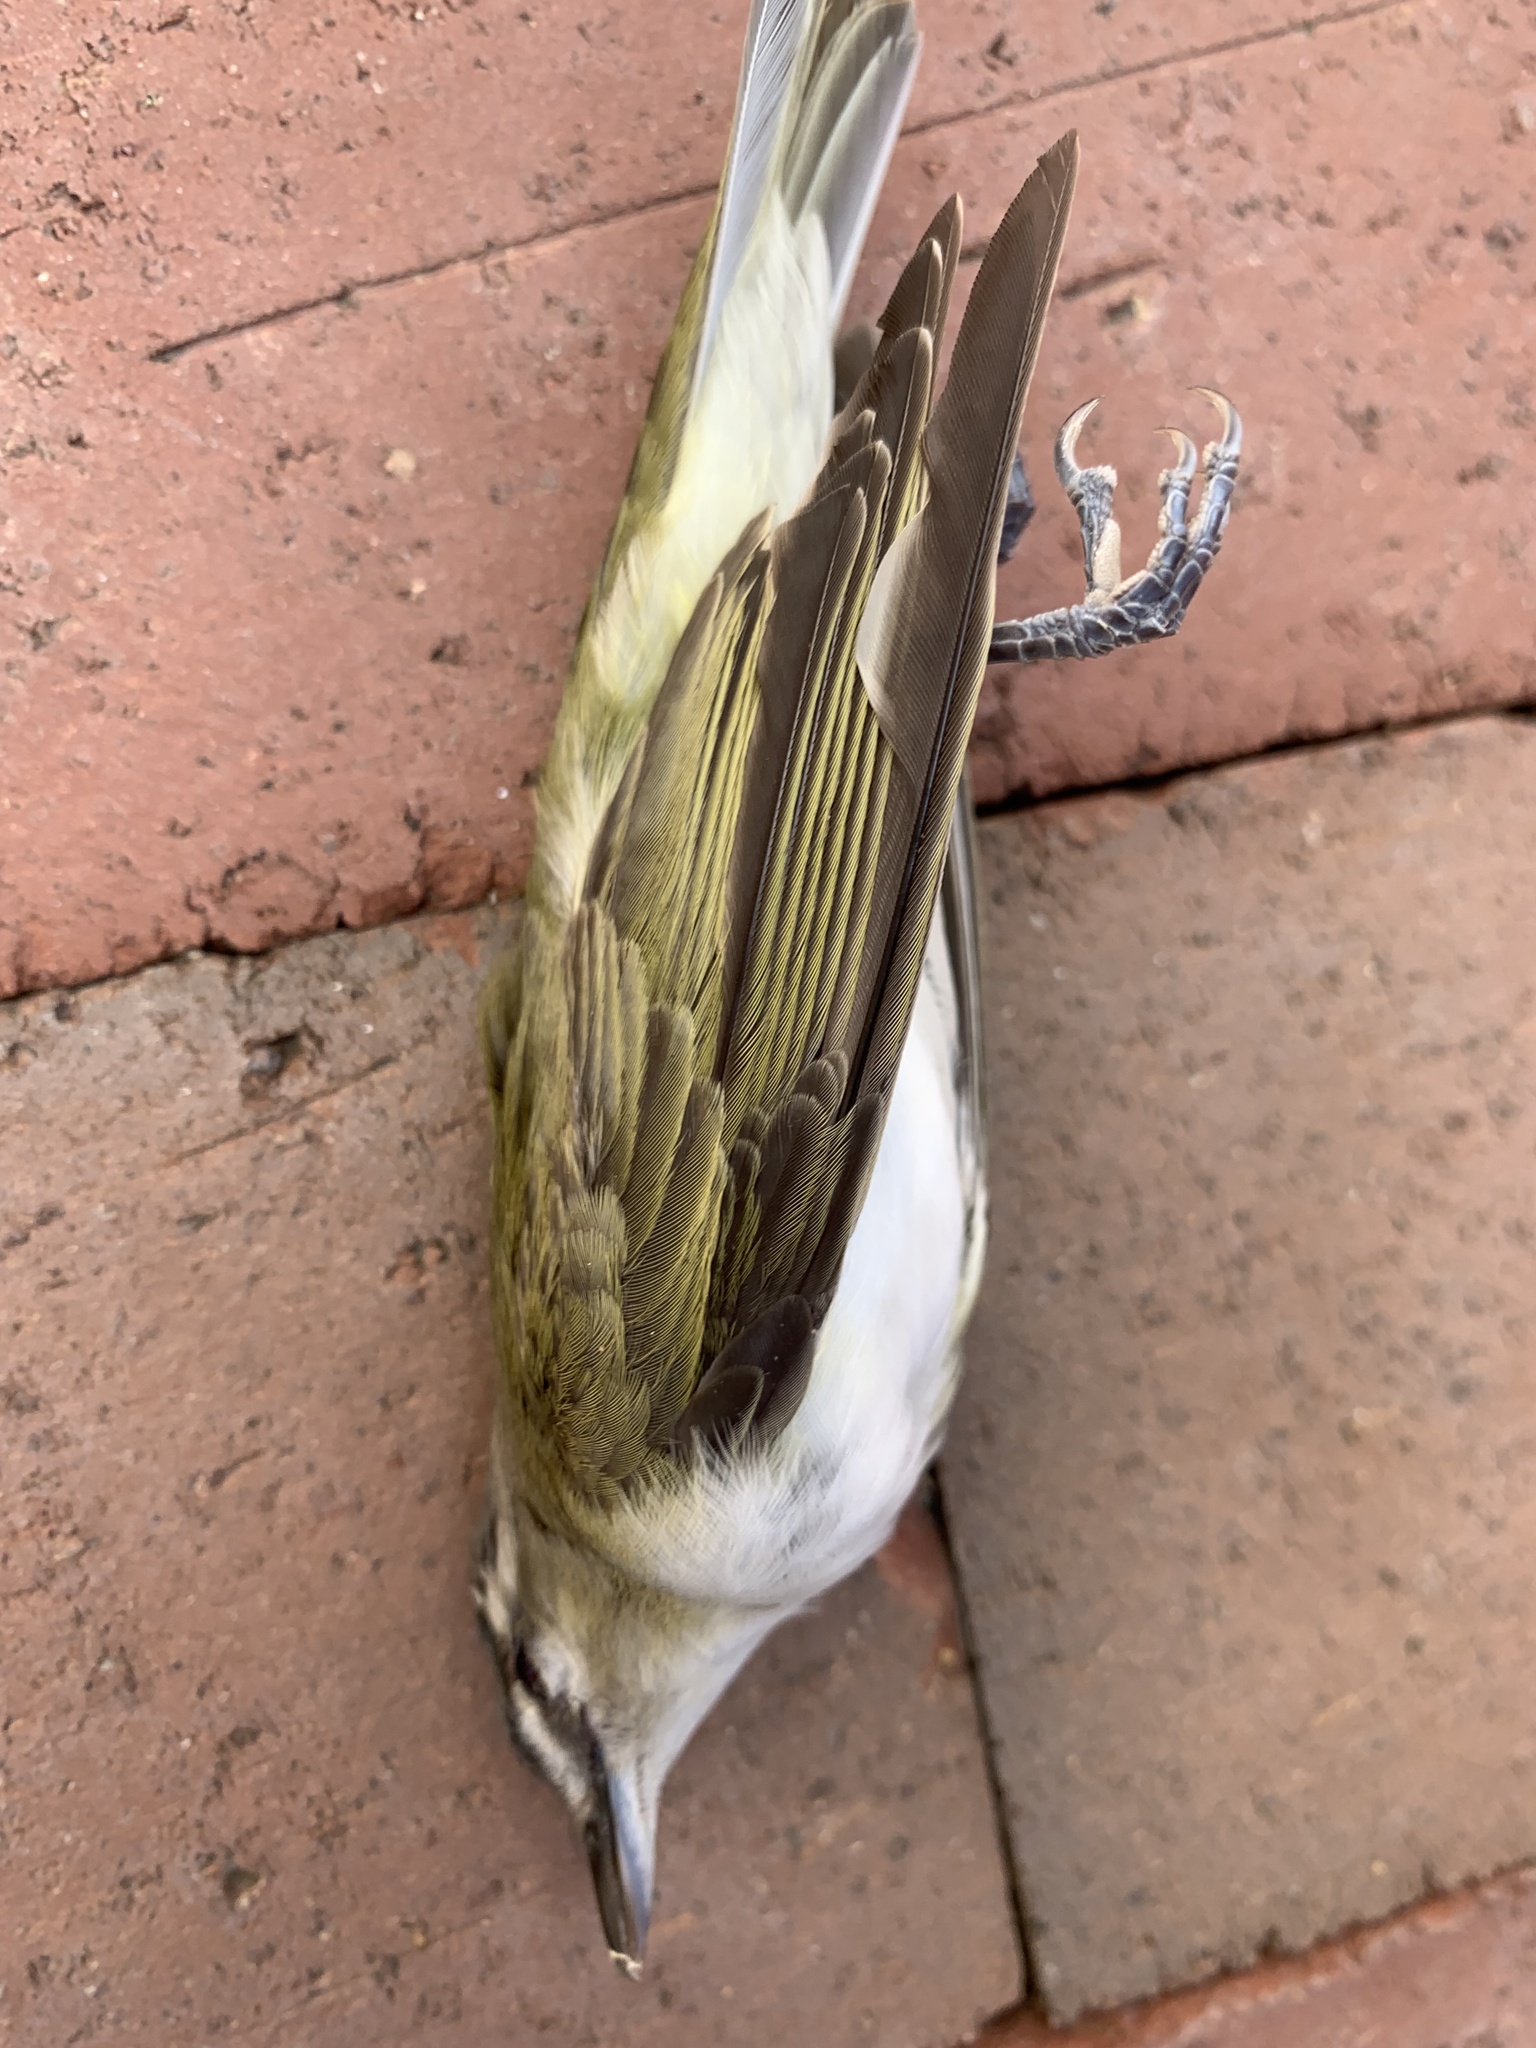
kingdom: Animalia
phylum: Chordata
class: Aves
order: Passeriformes
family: Vireonidae
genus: Vireo
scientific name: Vireo olivaceus
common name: Red-eyed vireo
